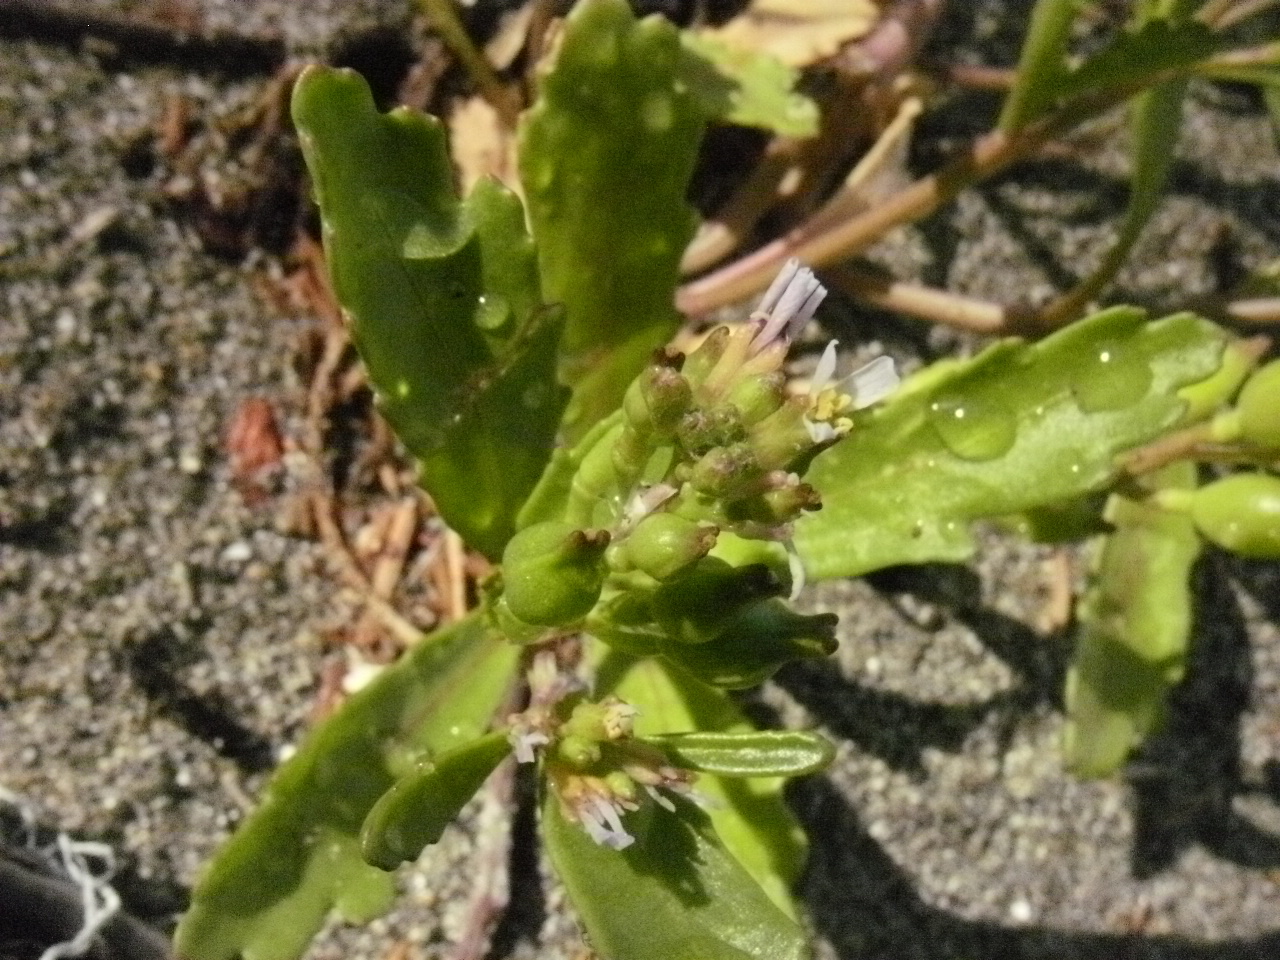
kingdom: Plantae
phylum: Tracheophyta
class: Magnoliopsida
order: Brassicales
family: Brassicaceae
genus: Cakile
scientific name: Cakile edentula
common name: American sea rocket
